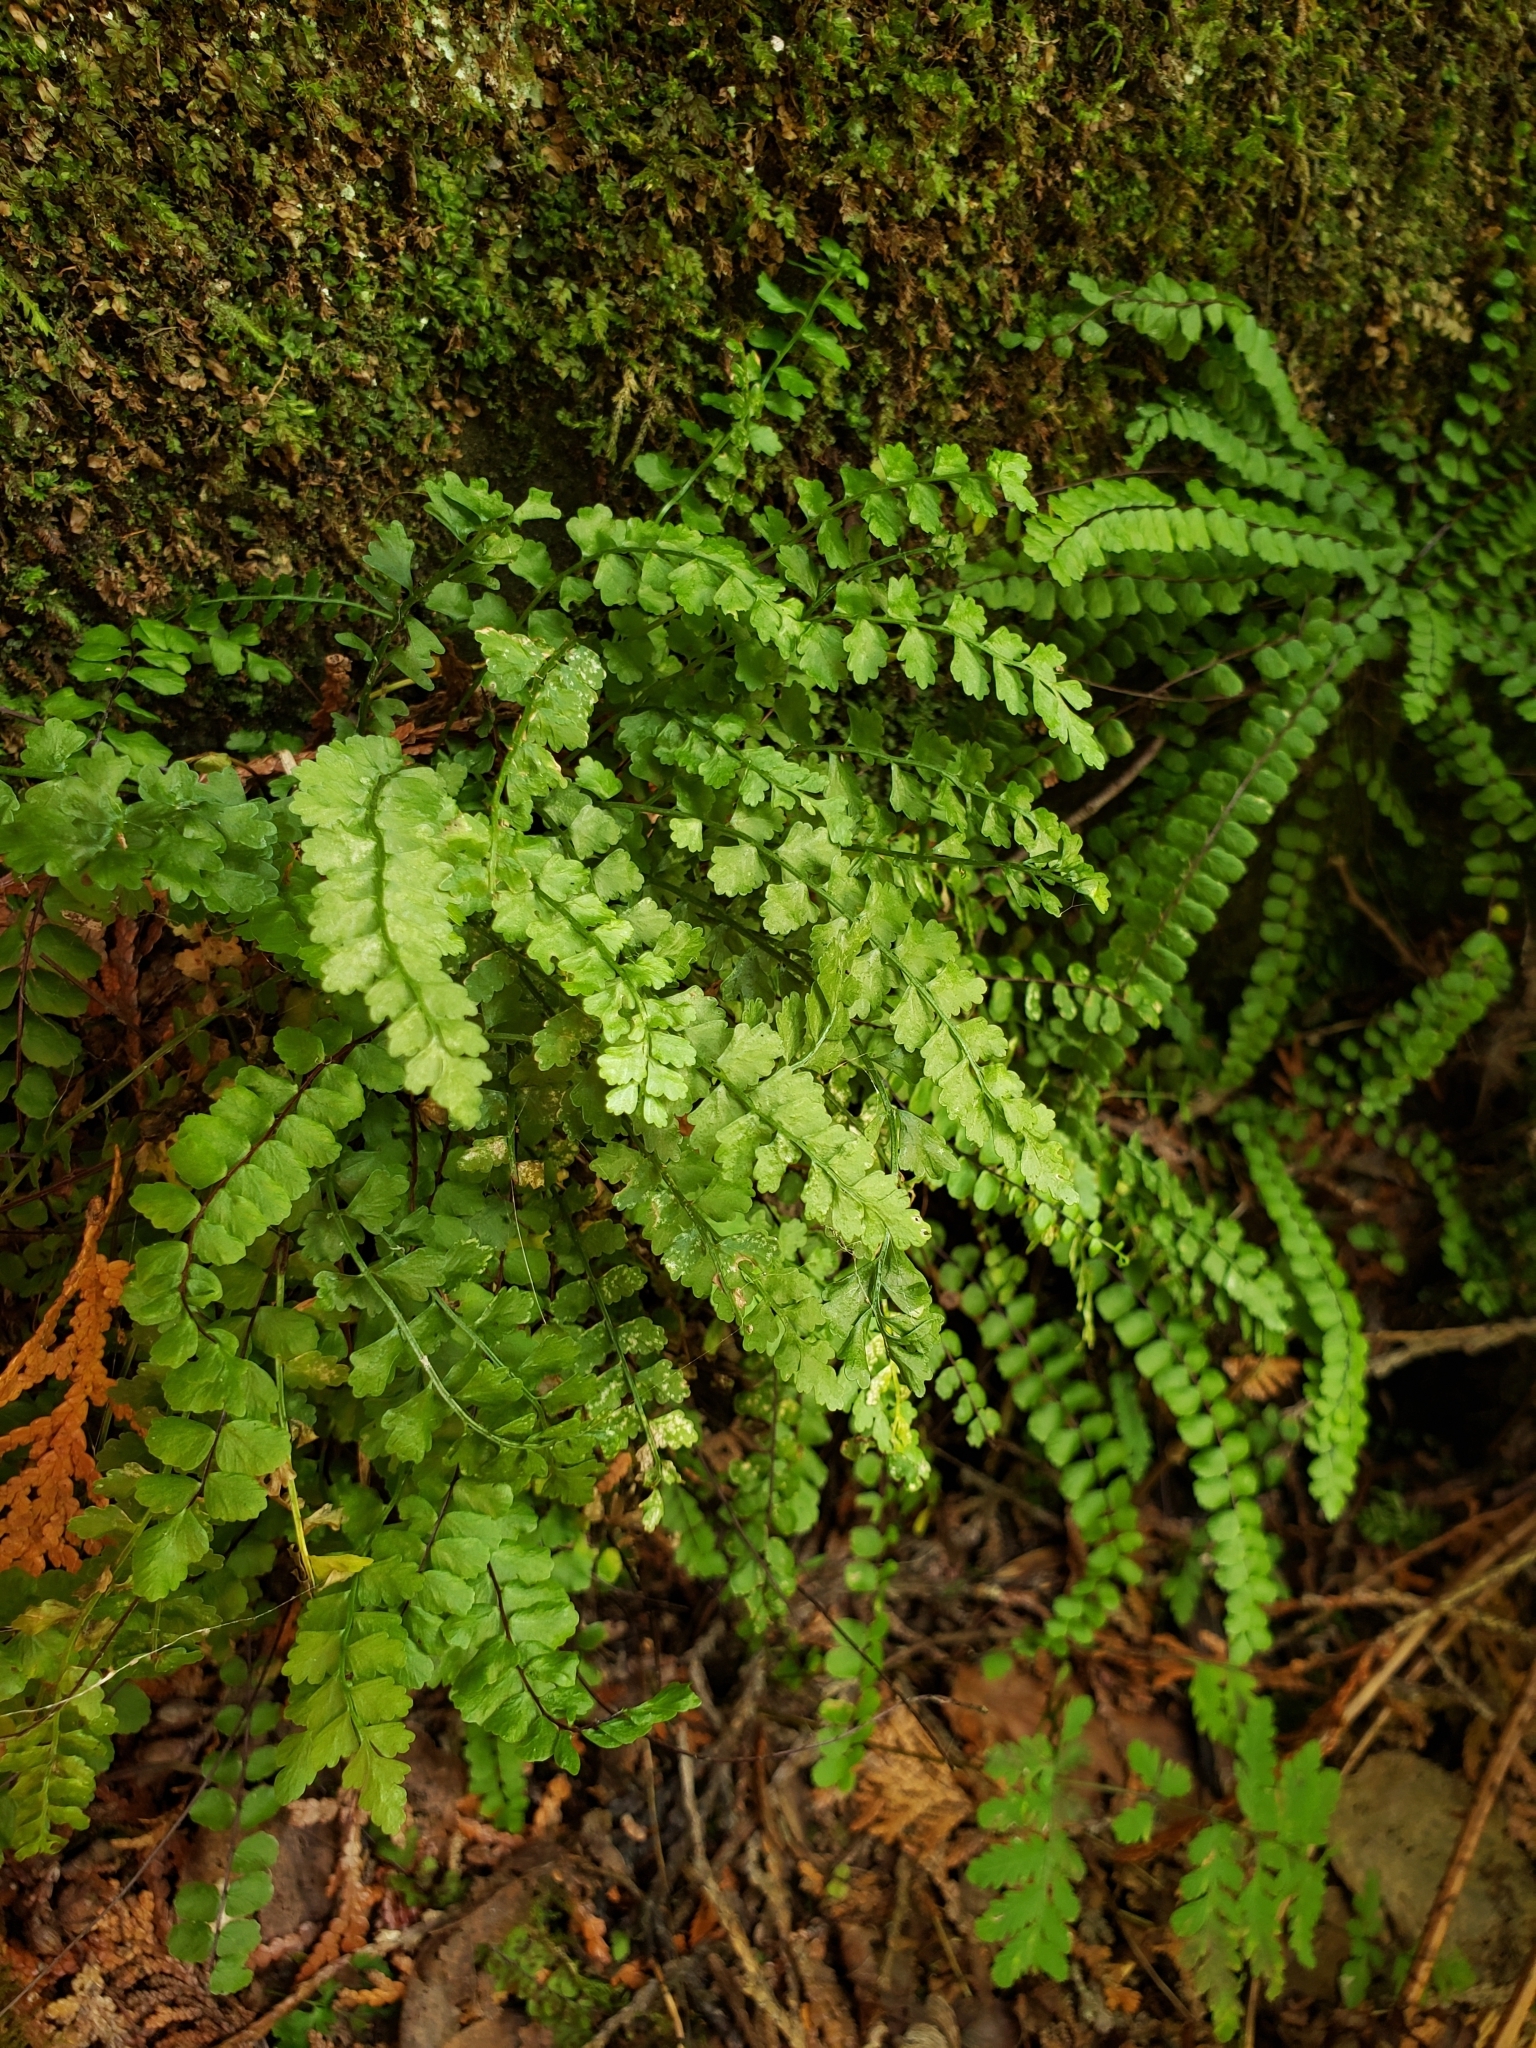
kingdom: Plantae
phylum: Tracheophyta
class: Polypodiopsida
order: Polypodiales
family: Aspleniaceae
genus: Asplenium
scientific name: Asplenium viride
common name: Green spleenwort
